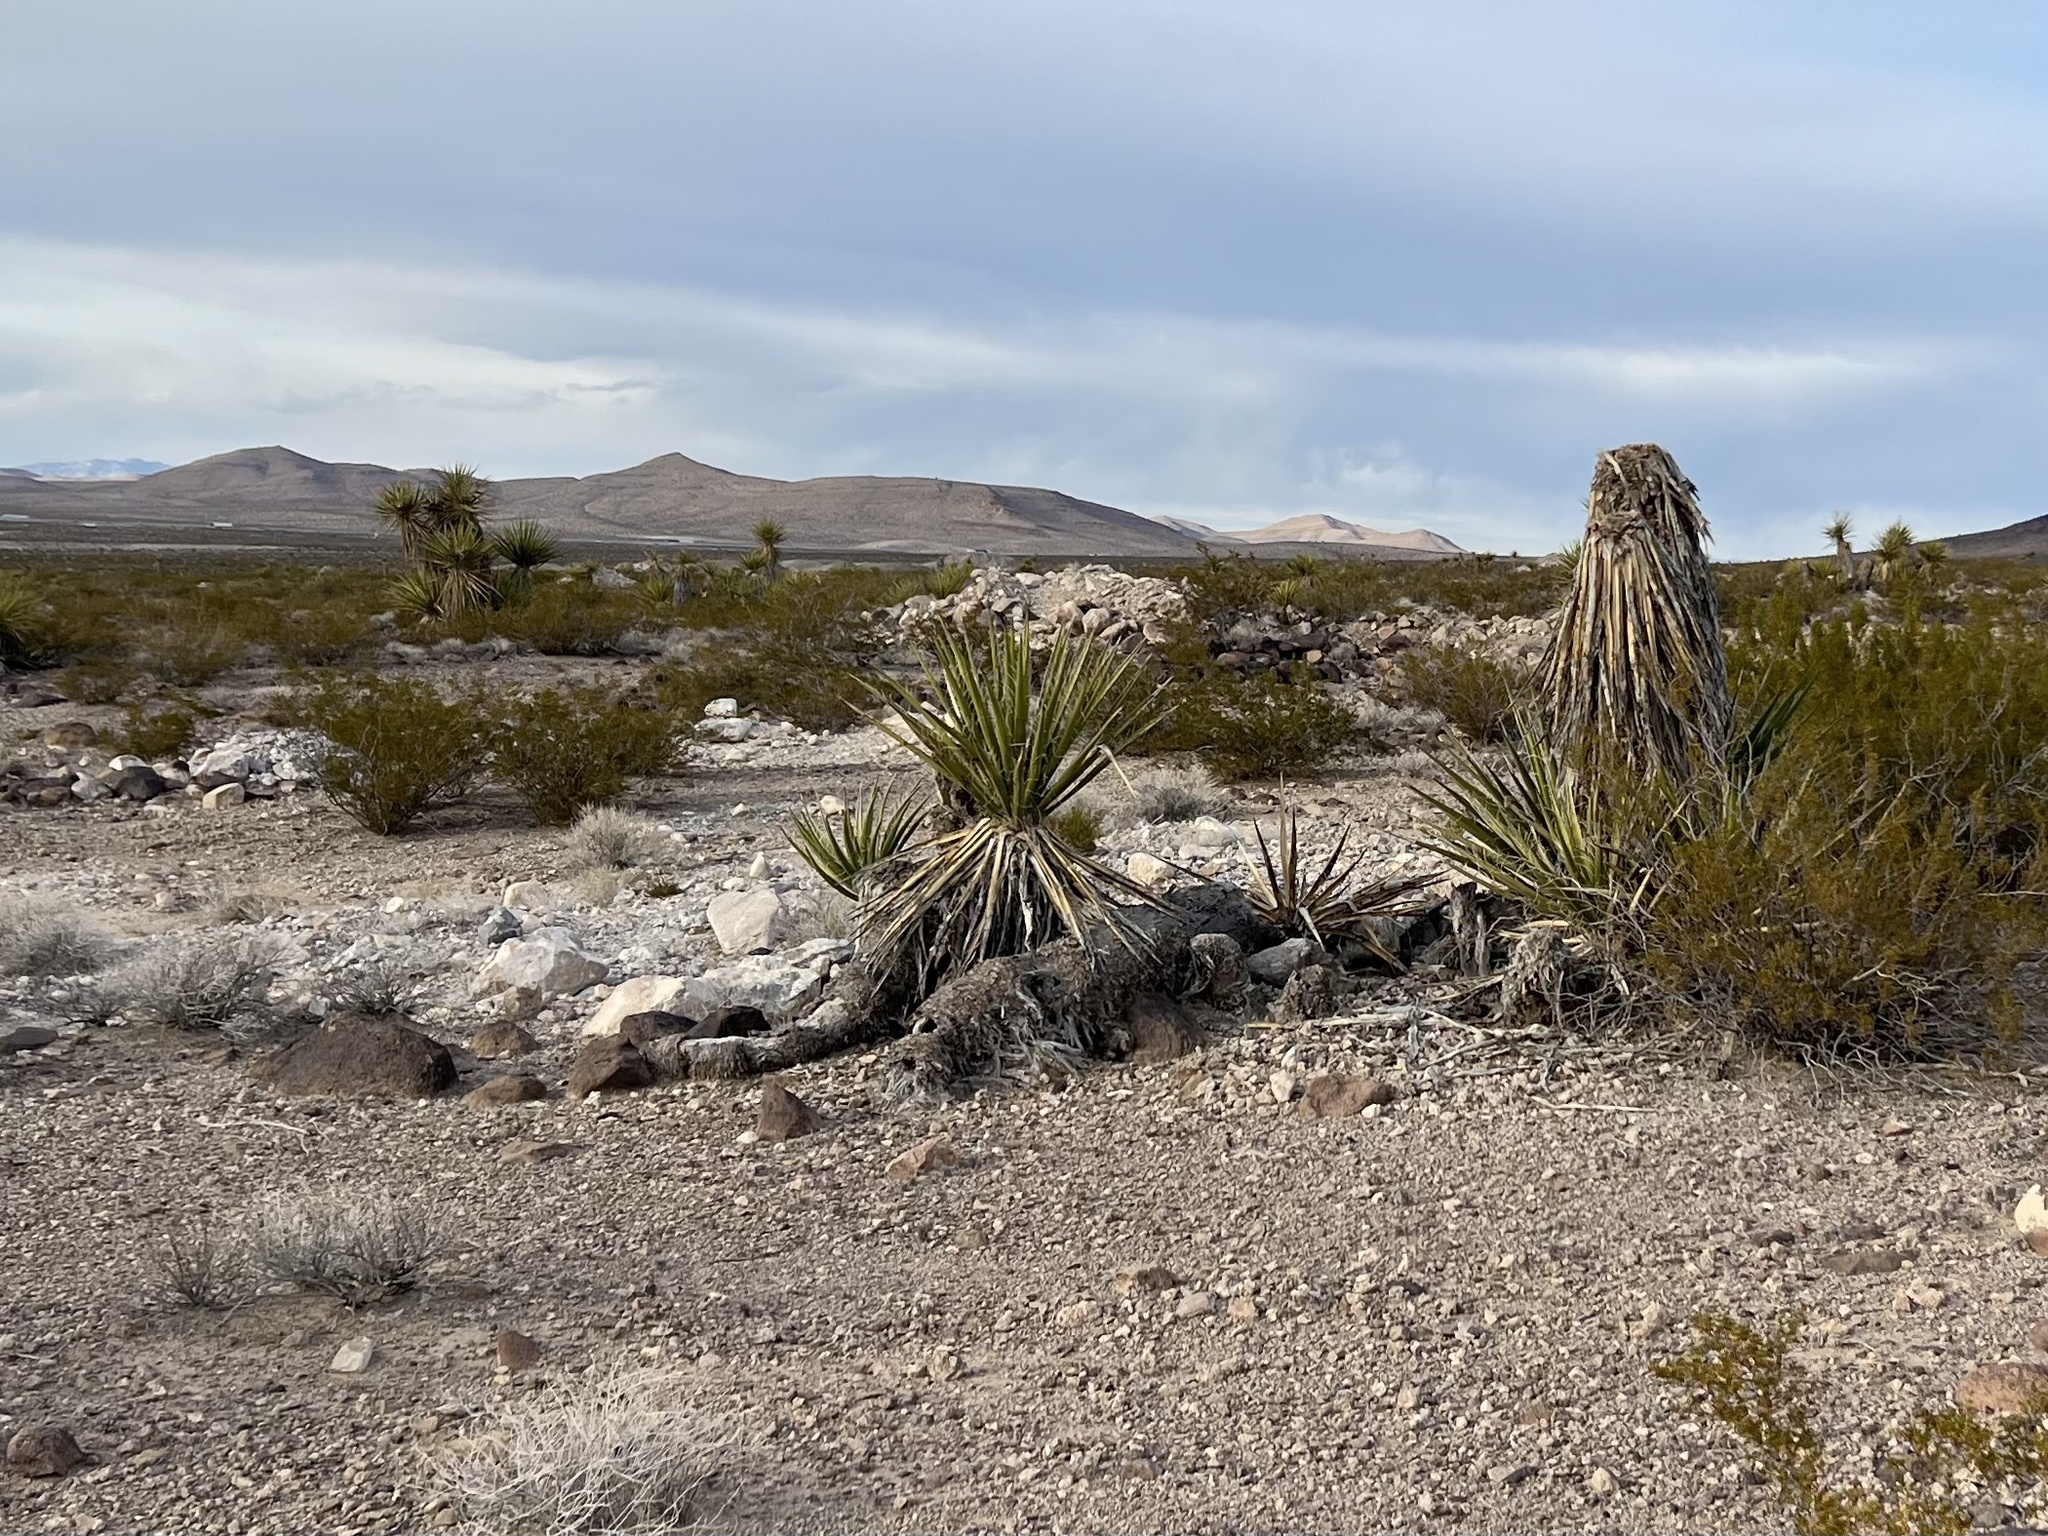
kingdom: Plantae
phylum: Tracheophyta
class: Liliopsida
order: Asparagales
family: Asparagaceae
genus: Yucca
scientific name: Yucca schidigera
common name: Mojave yucca
